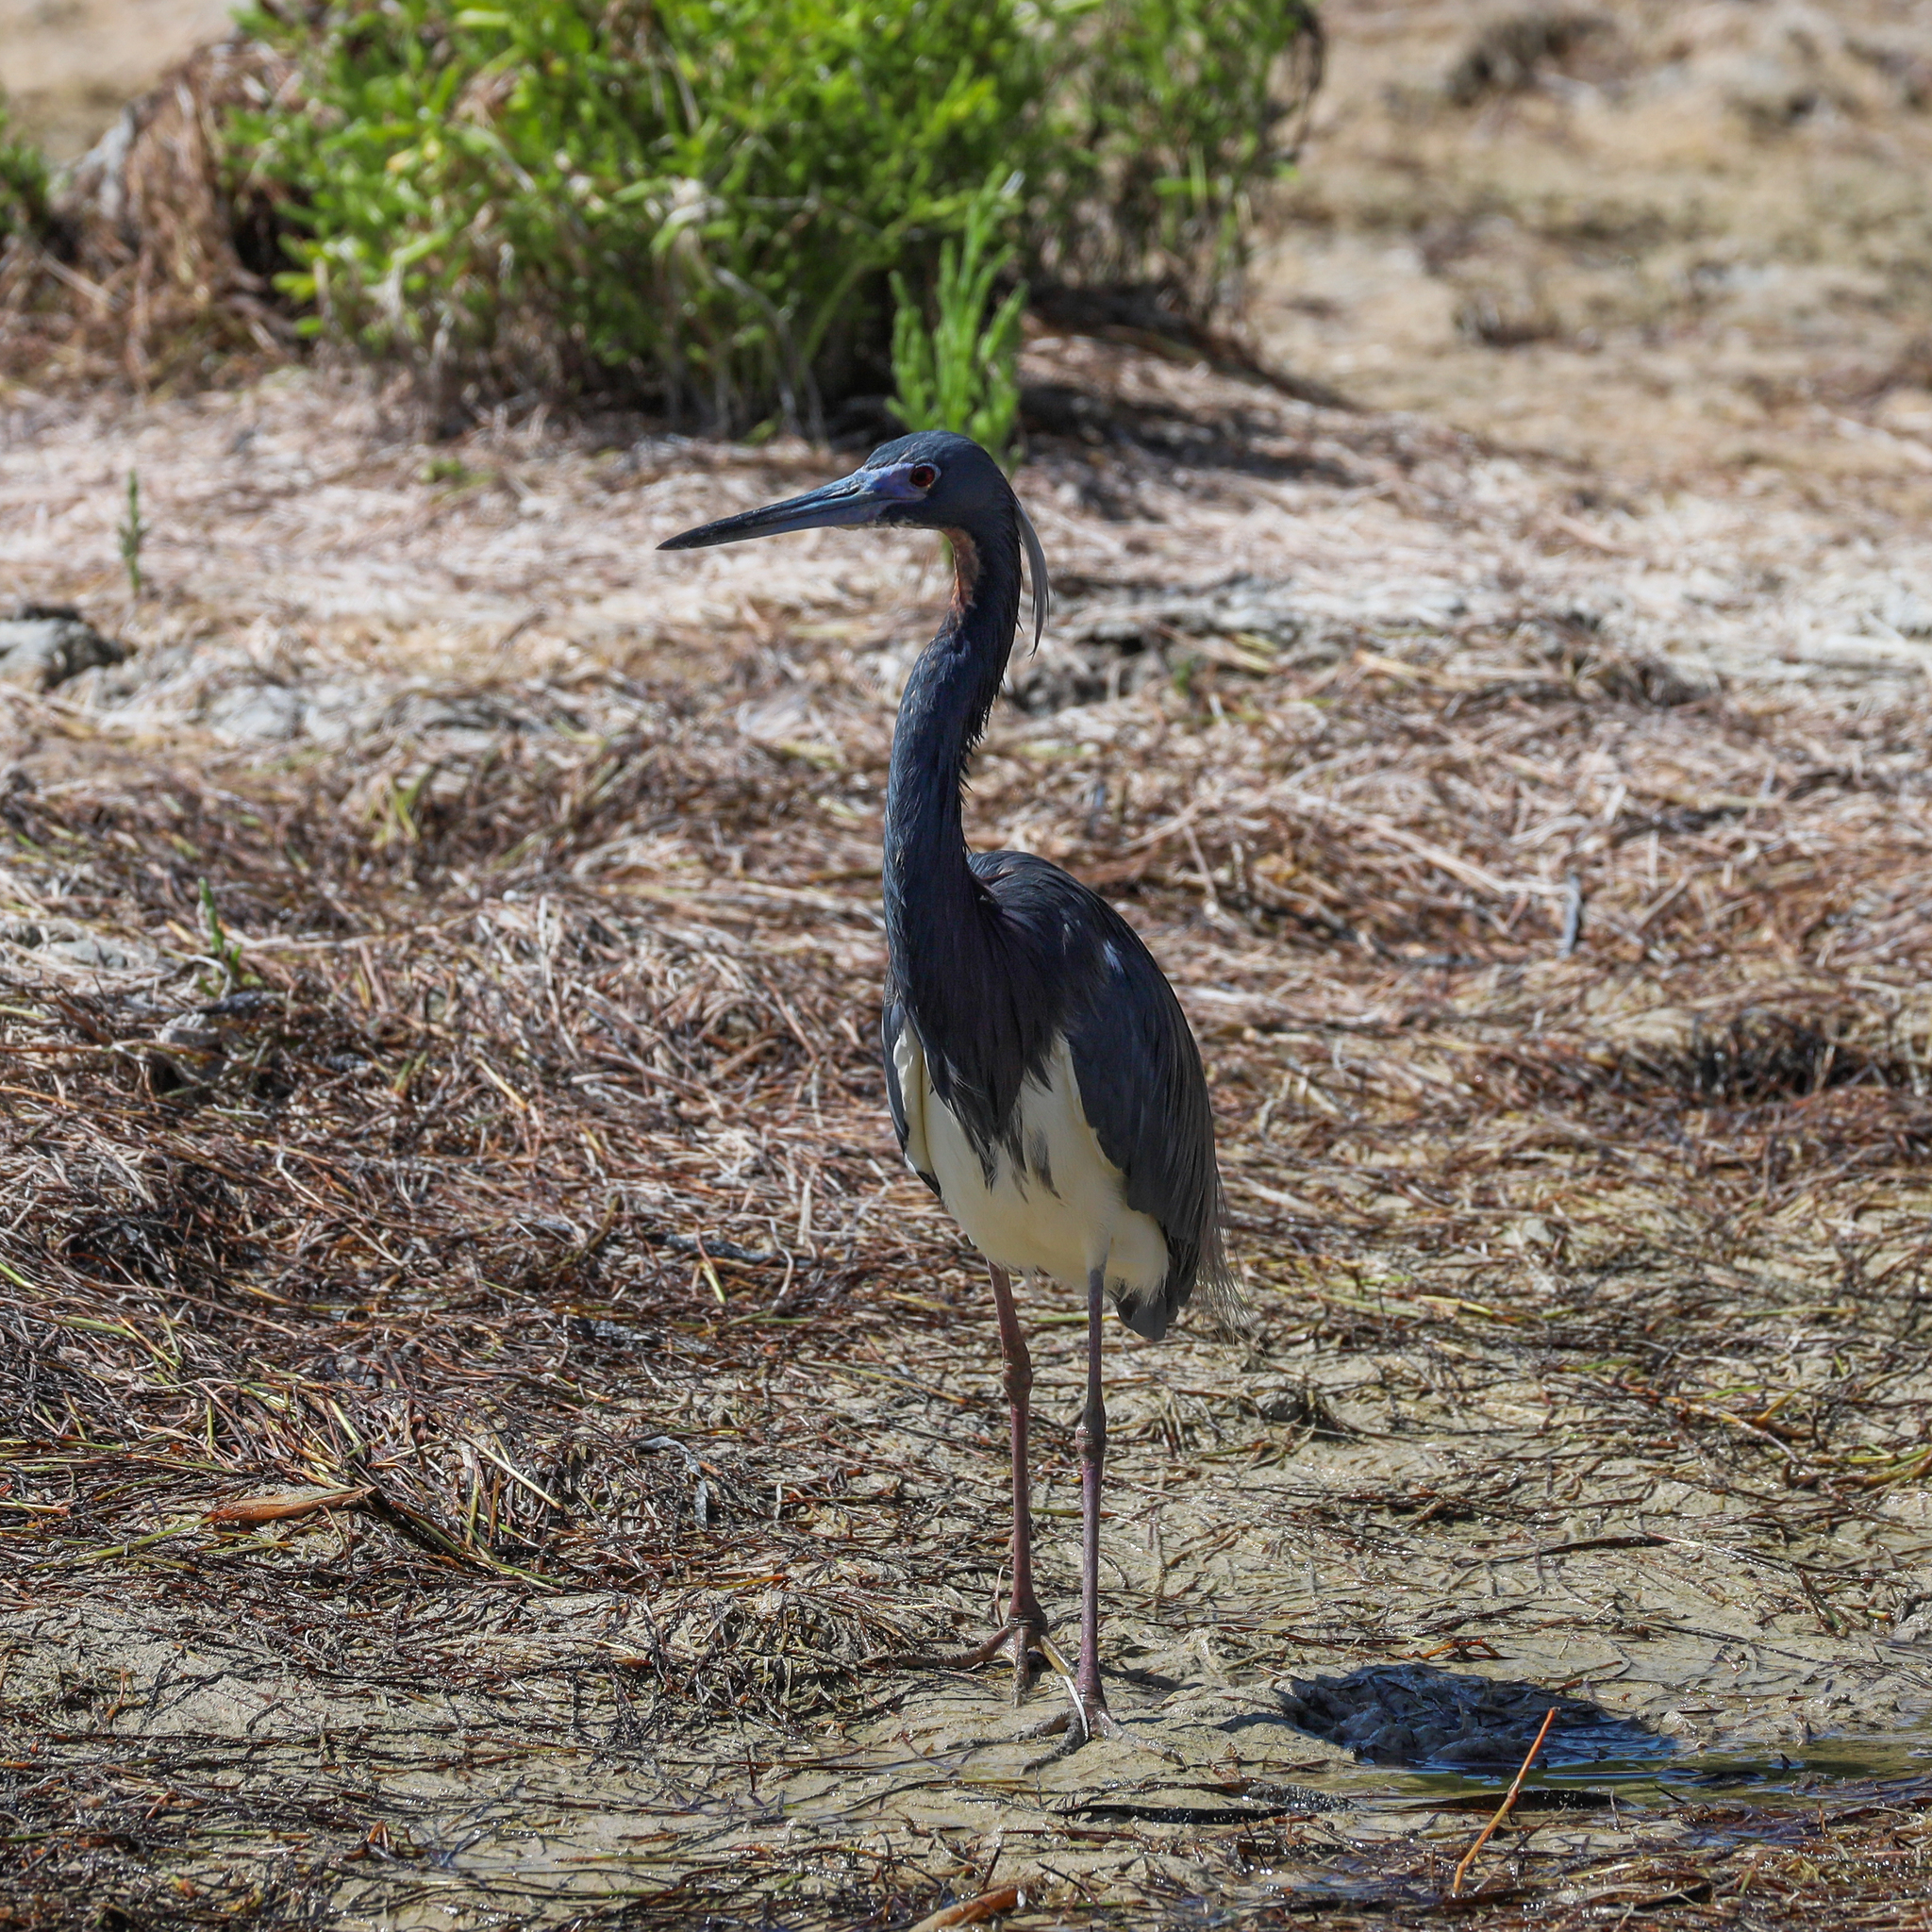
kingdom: Animalia
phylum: Chordata
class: Aves
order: Pelecaniformes
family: Ardeidae
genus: Egretta
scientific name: Egretta tricolor
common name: Tricolored heron
